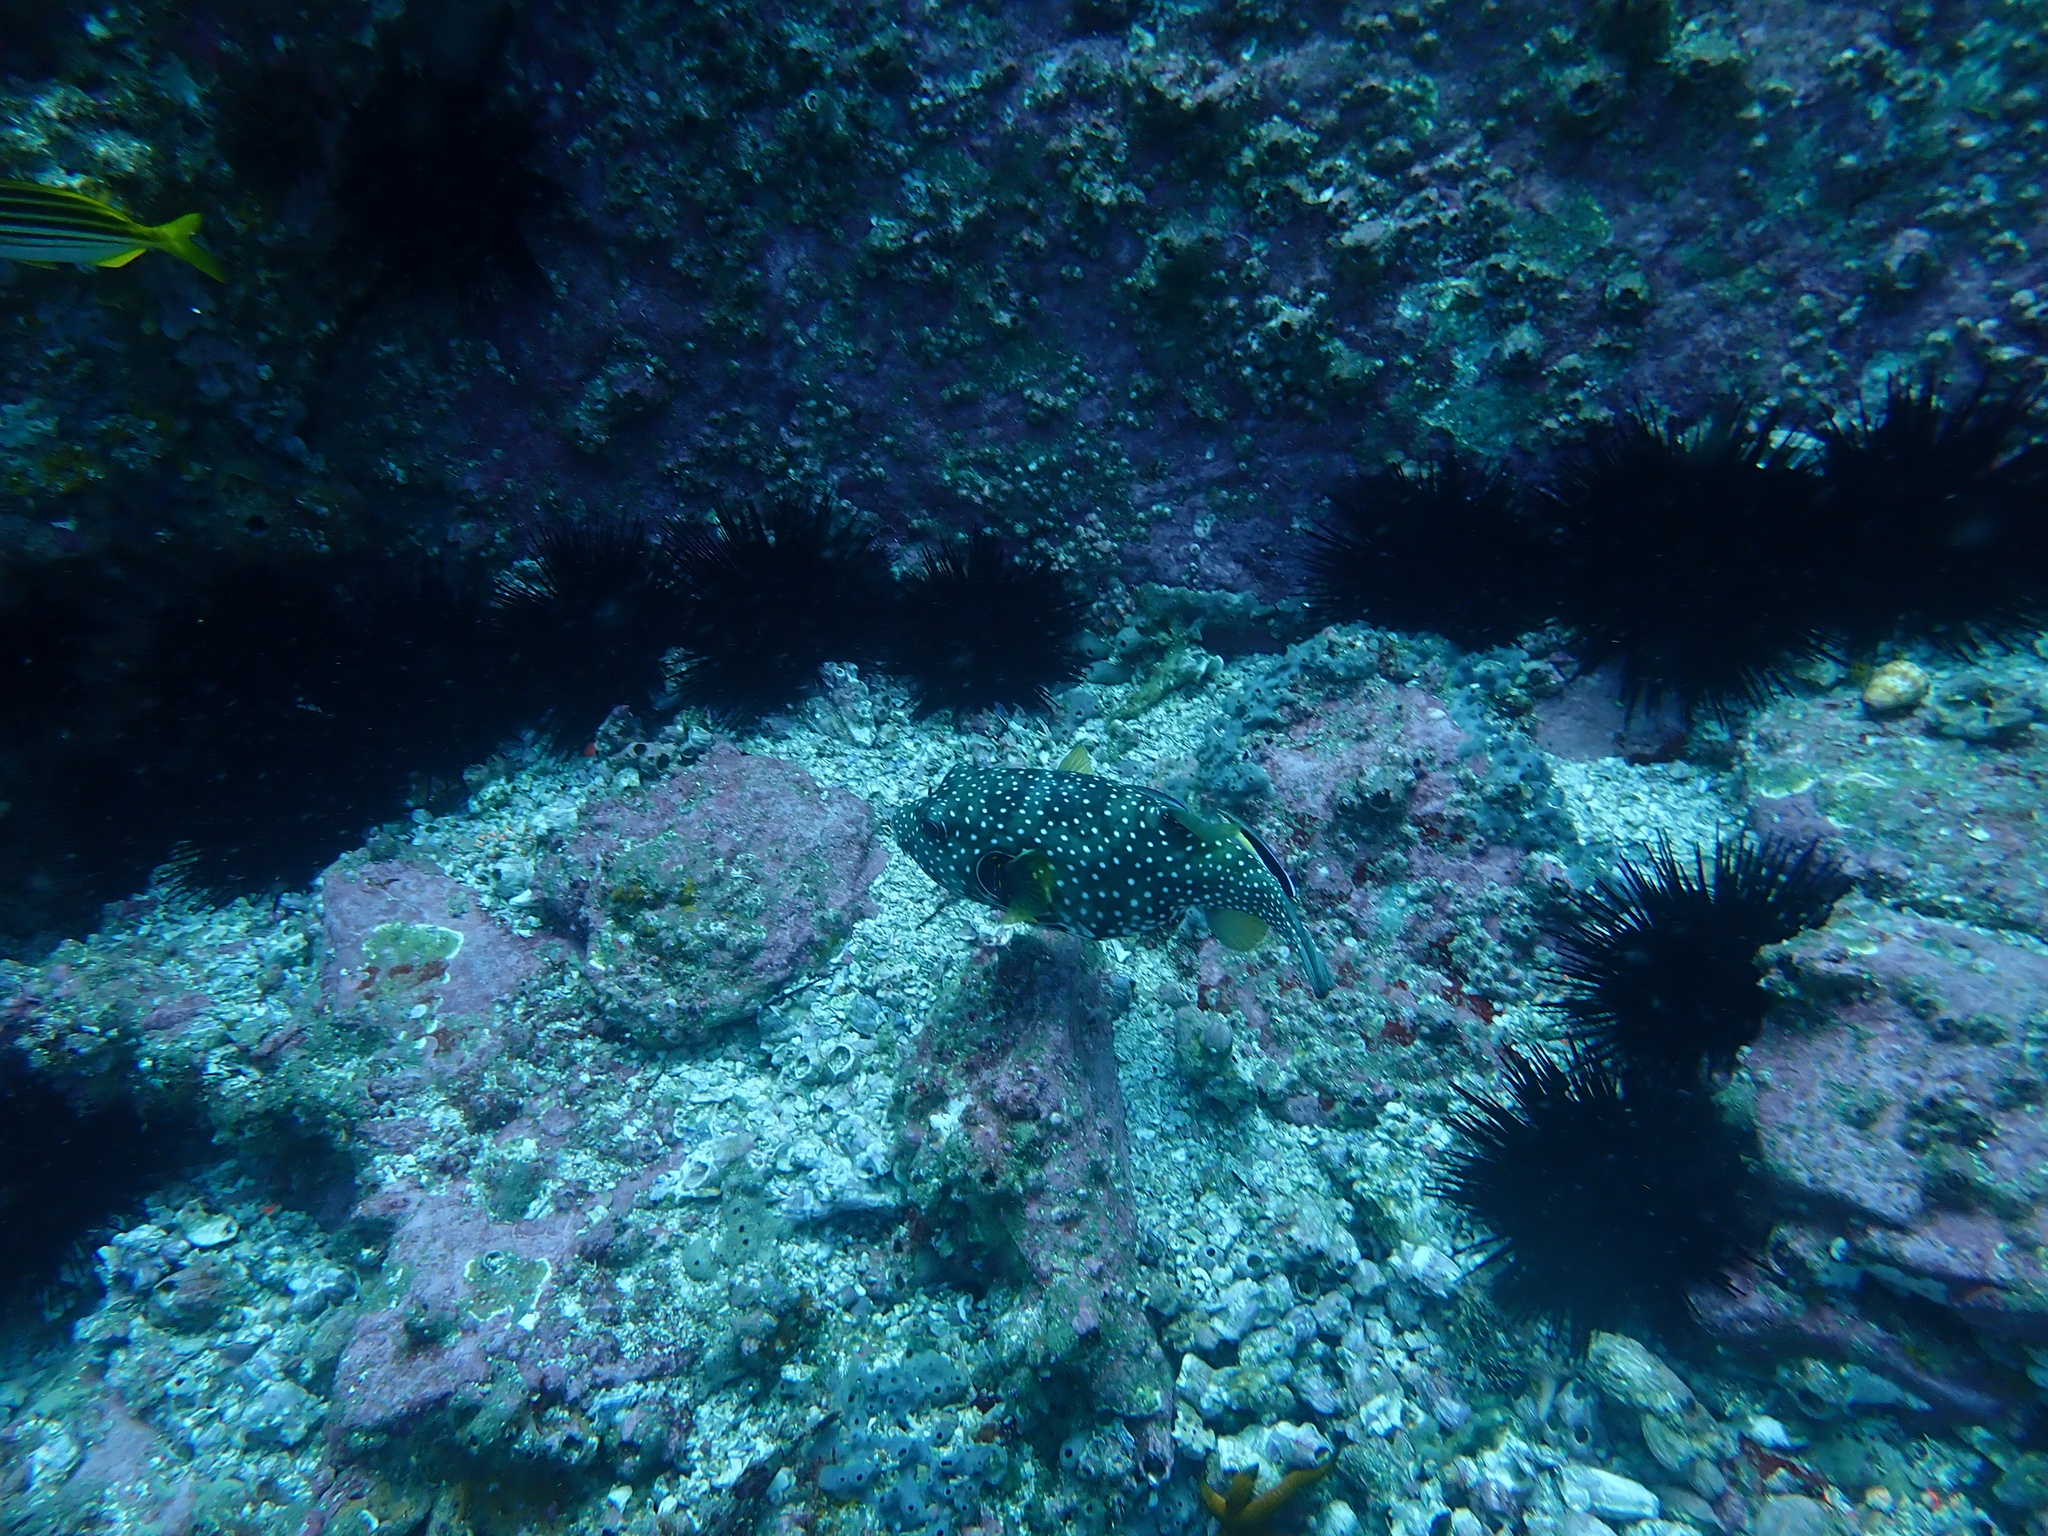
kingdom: Animalia
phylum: Chordata
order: Tetraodontiformes
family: Tetraodontidae
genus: Arothron
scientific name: Arothron hispidus
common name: Stripebelly puffer
